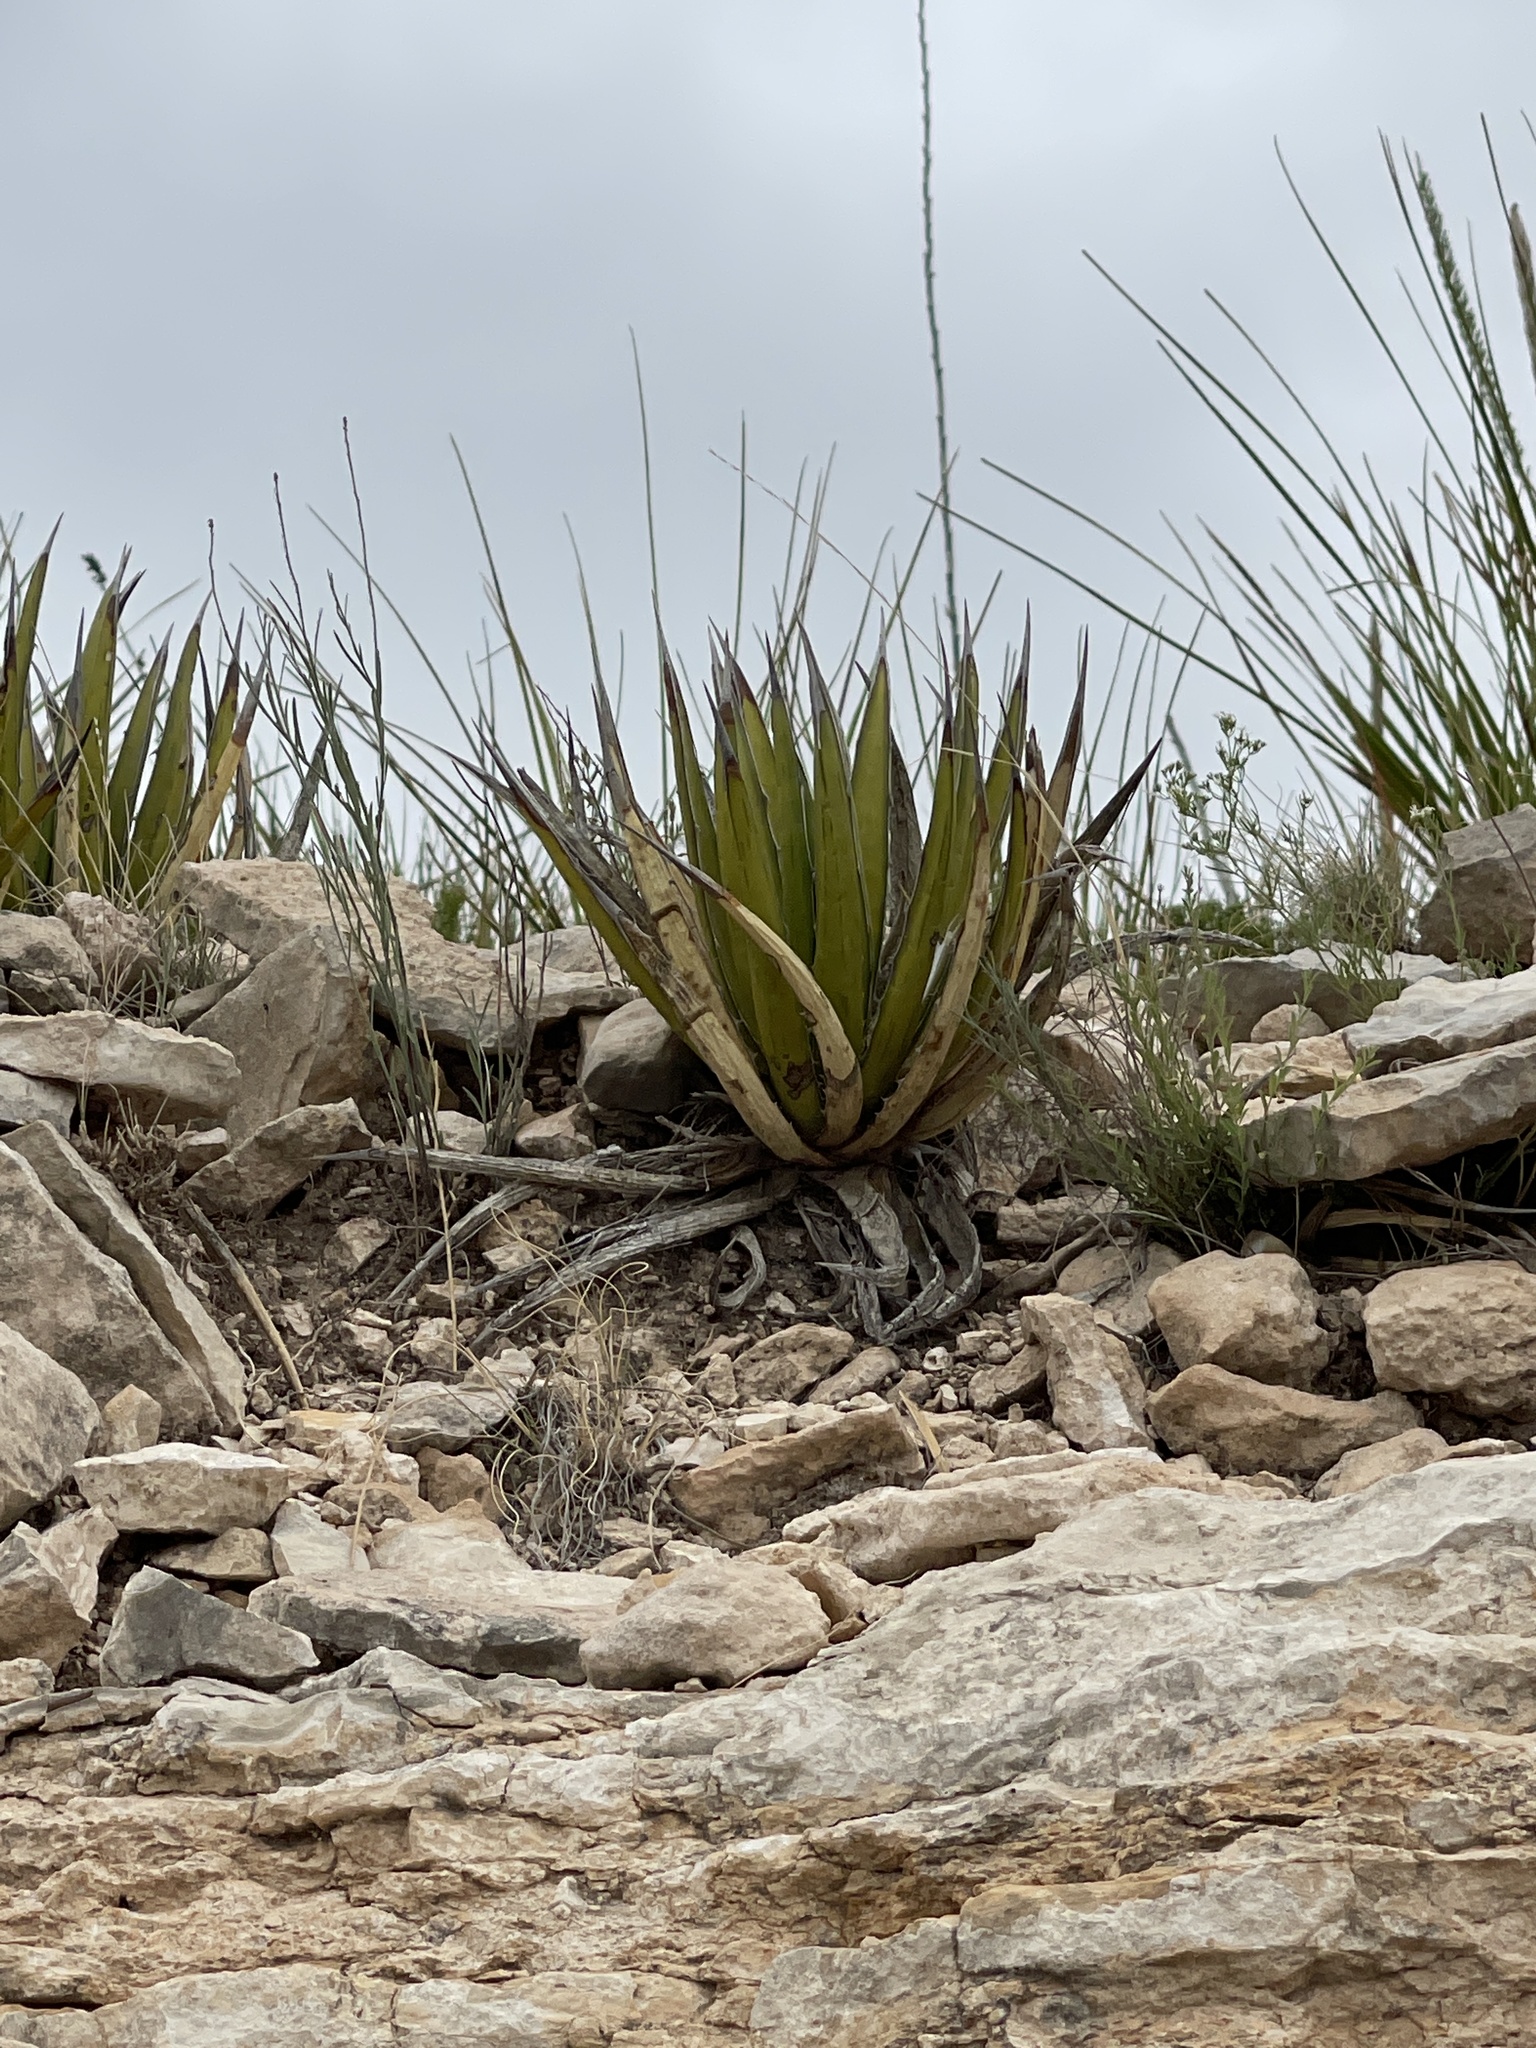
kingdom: Plantae
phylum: Tracheophyta
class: Liliopsida
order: Asparagales
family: Asparagaceae
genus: Agave
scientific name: Agave lechuguilla
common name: Lecheguilla agave
